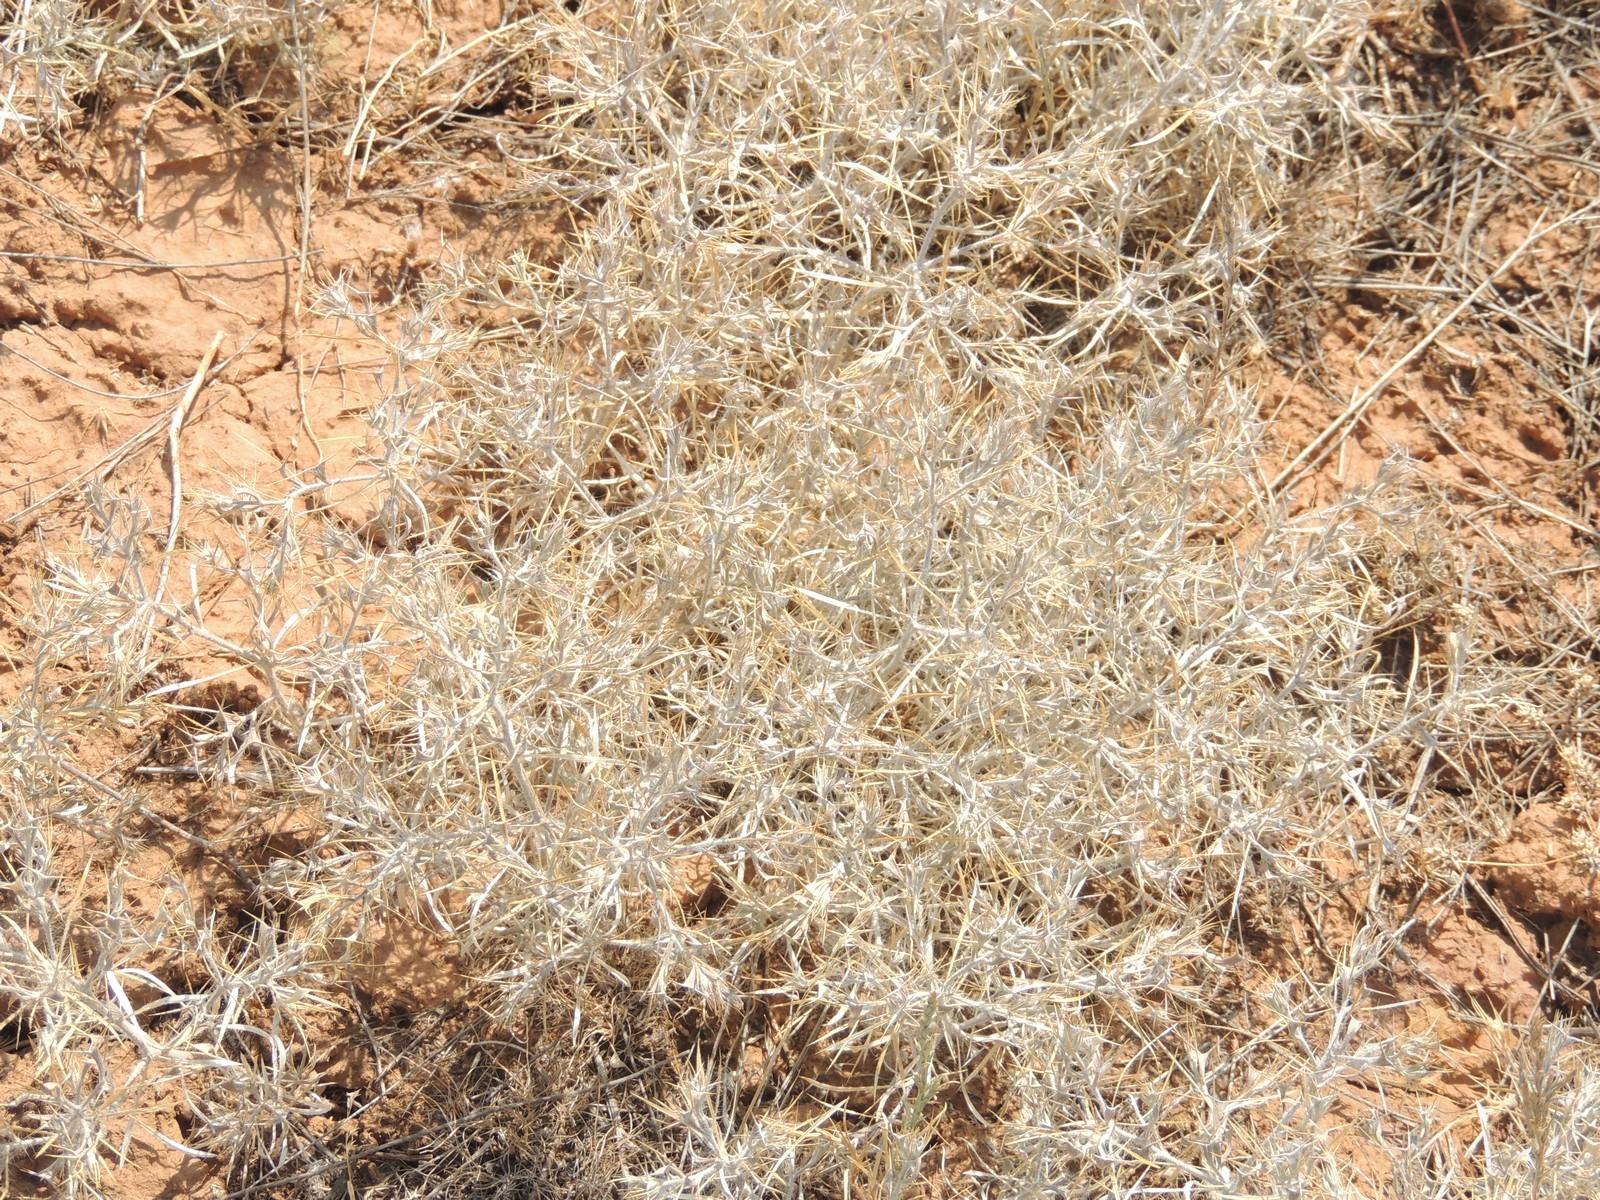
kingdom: Plantae
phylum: Tracheophyta
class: Magnoliopsida
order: Caryophyllales
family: Amaranthaceae
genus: Ceratocarpus
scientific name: Ceratocarpus arenarius
